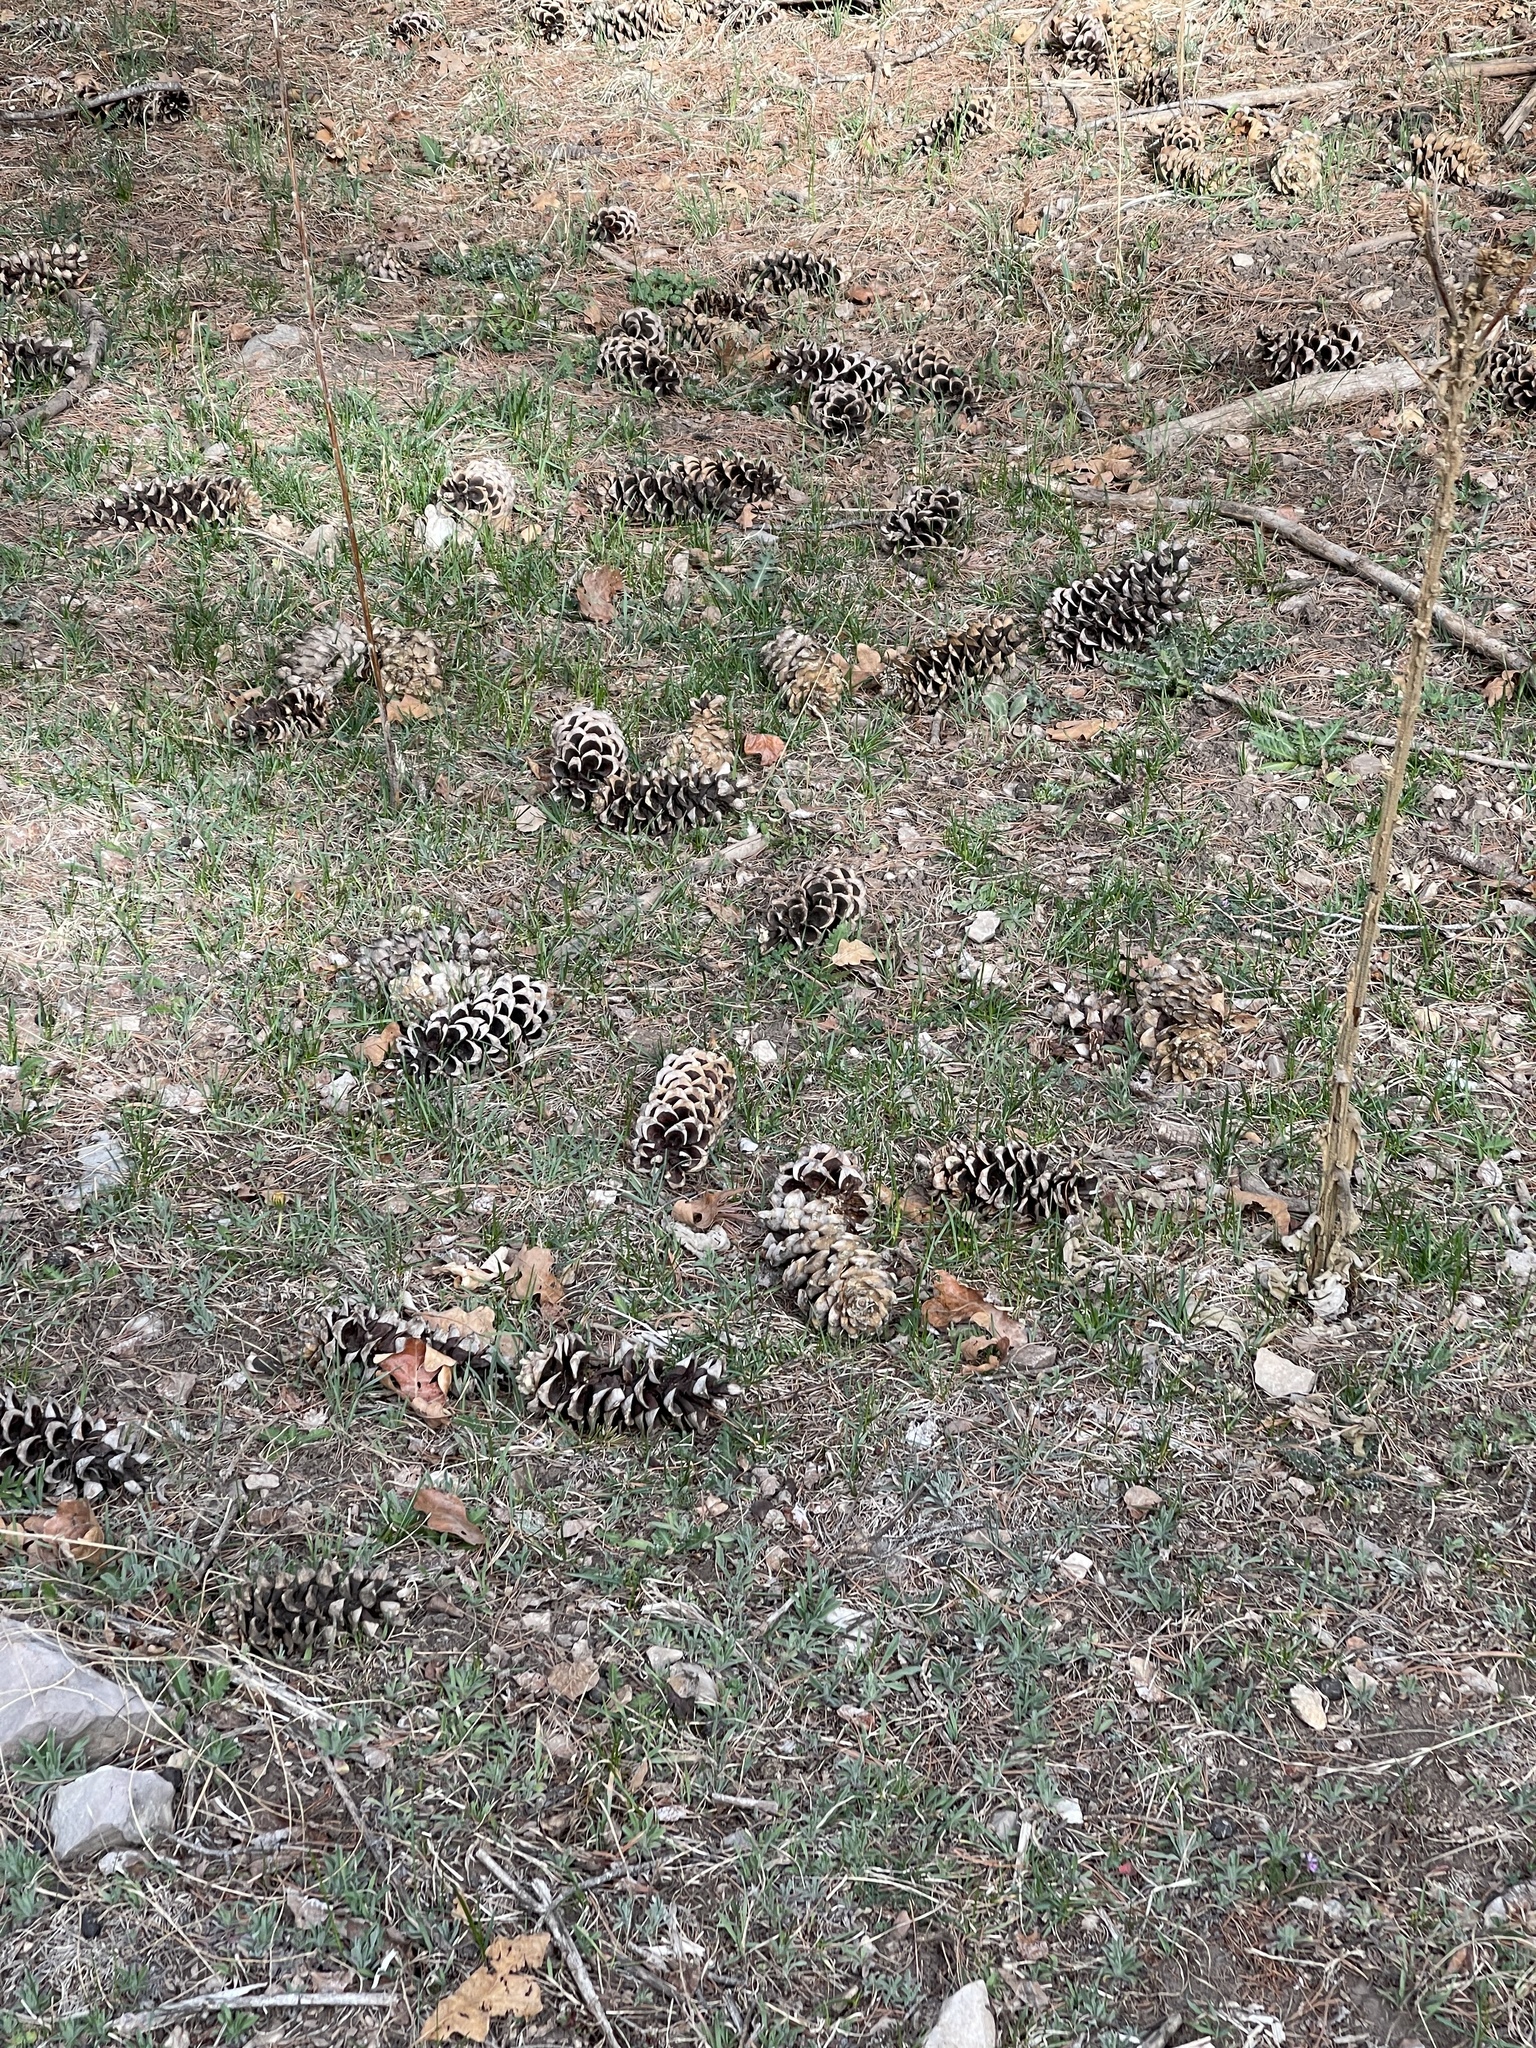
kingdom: Plantae
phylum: Tracheophyta
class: Pinopsida
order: Pinales
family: Pinaceae
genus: Pinus
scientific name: Pinus strobiformis
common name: Southwestern white pine
